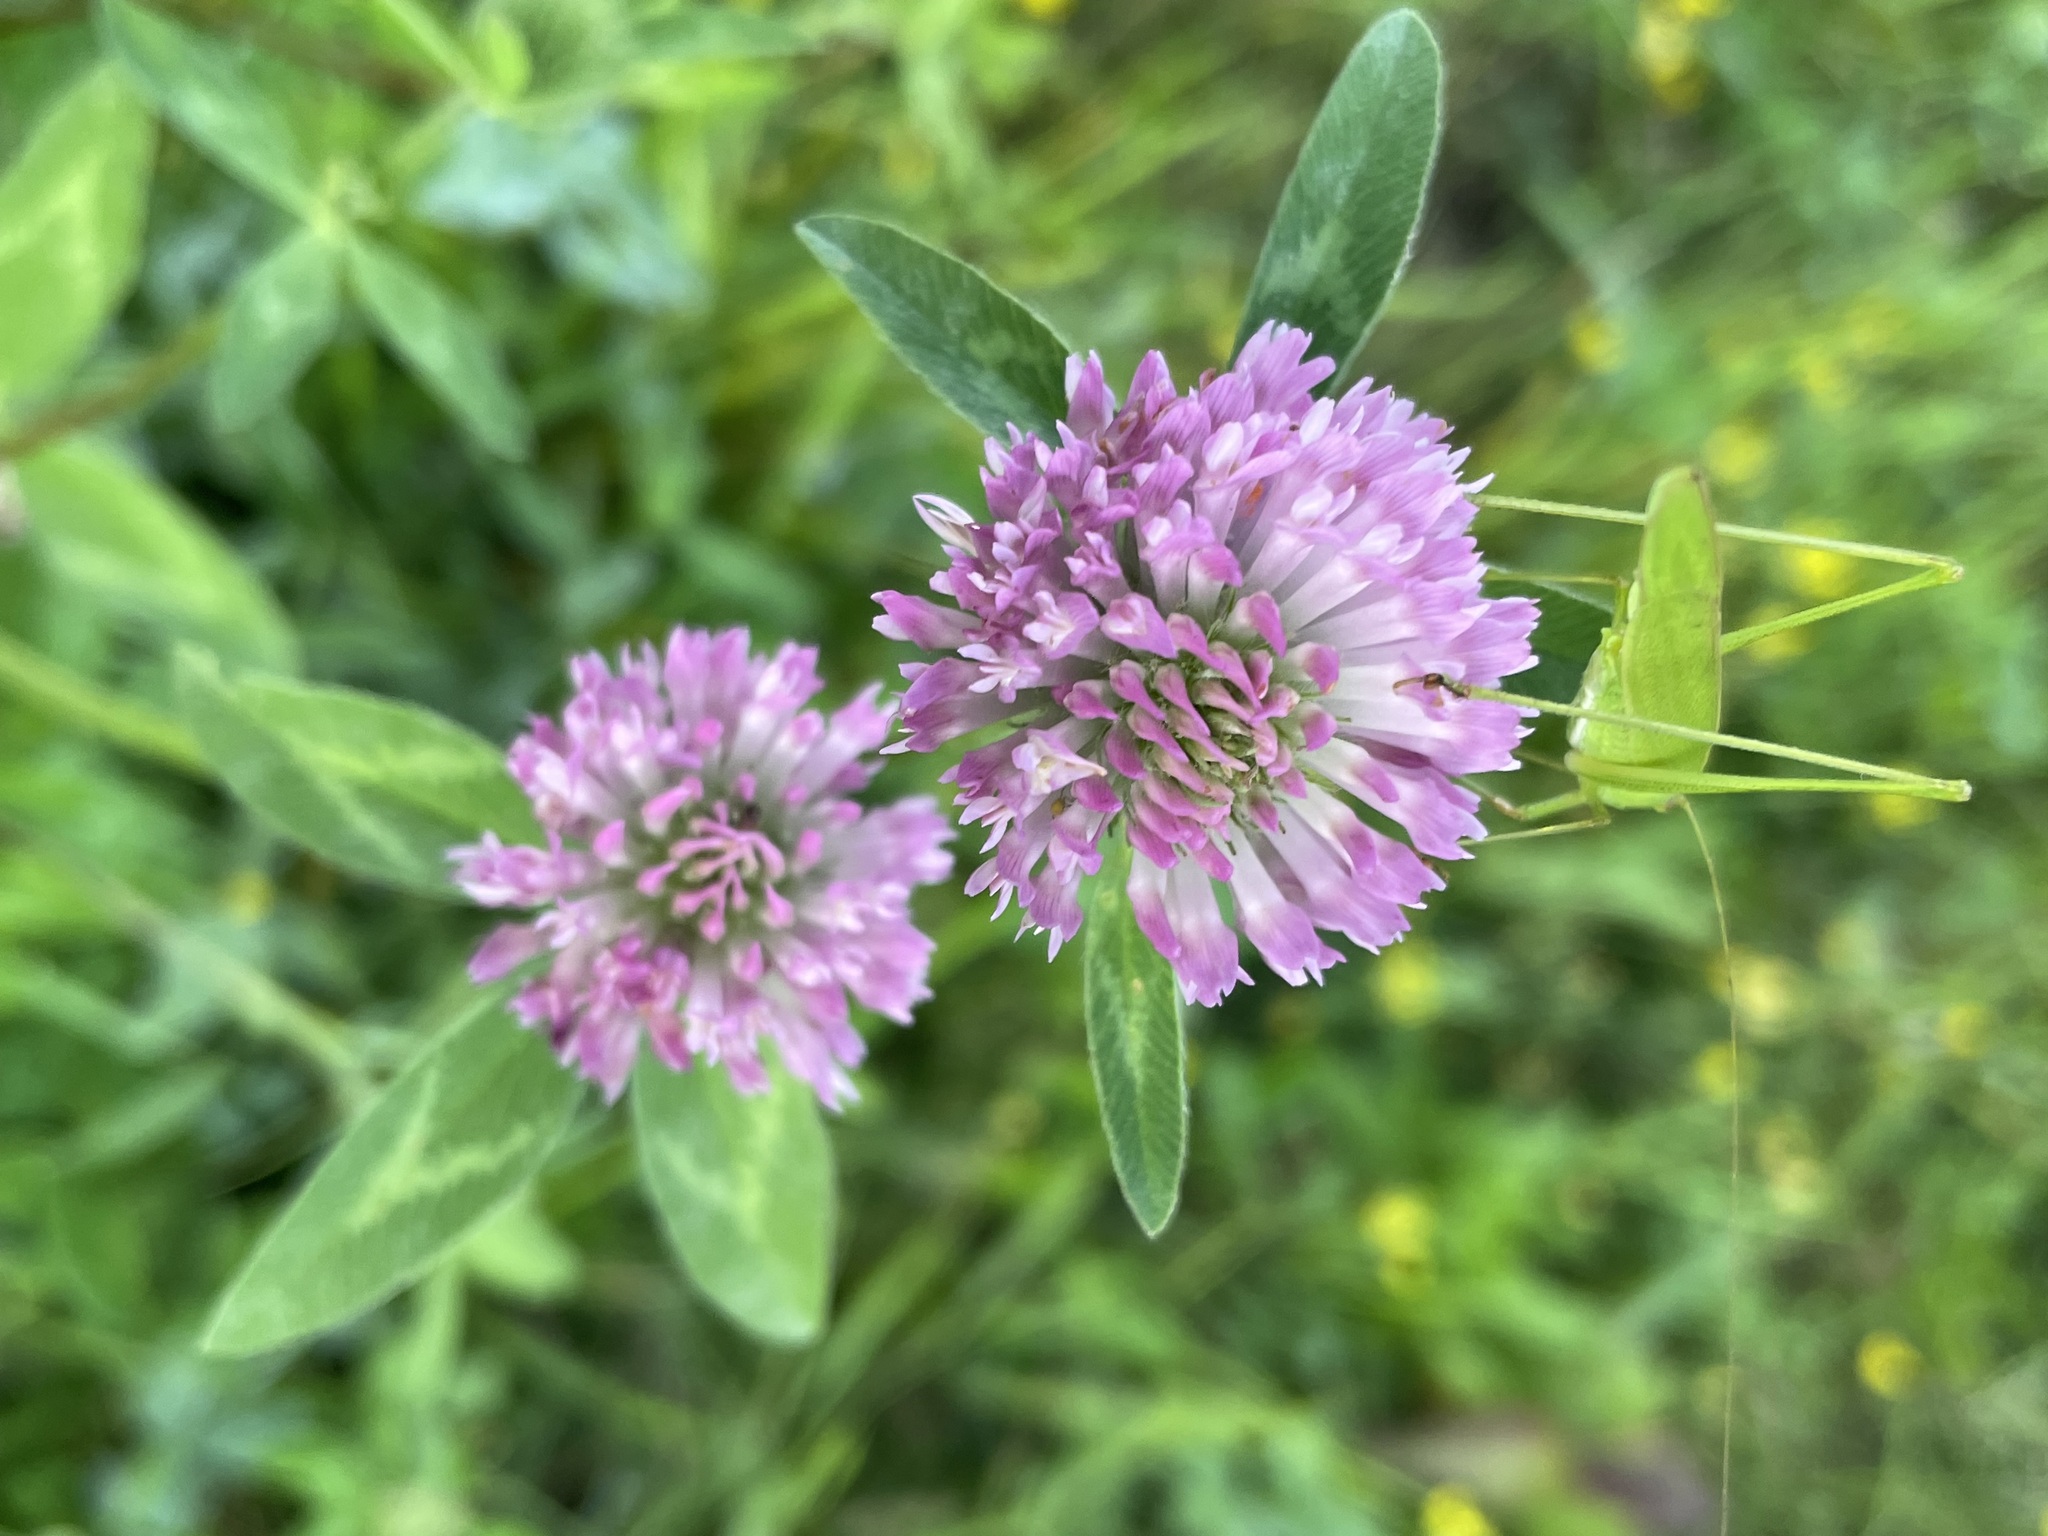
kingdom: Plantae
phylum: Tracheophyta
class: Magnoliopsida
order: Fabales
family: Fabaceae
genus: Trifolium
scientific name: Trifolium pratense
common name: Red clover
